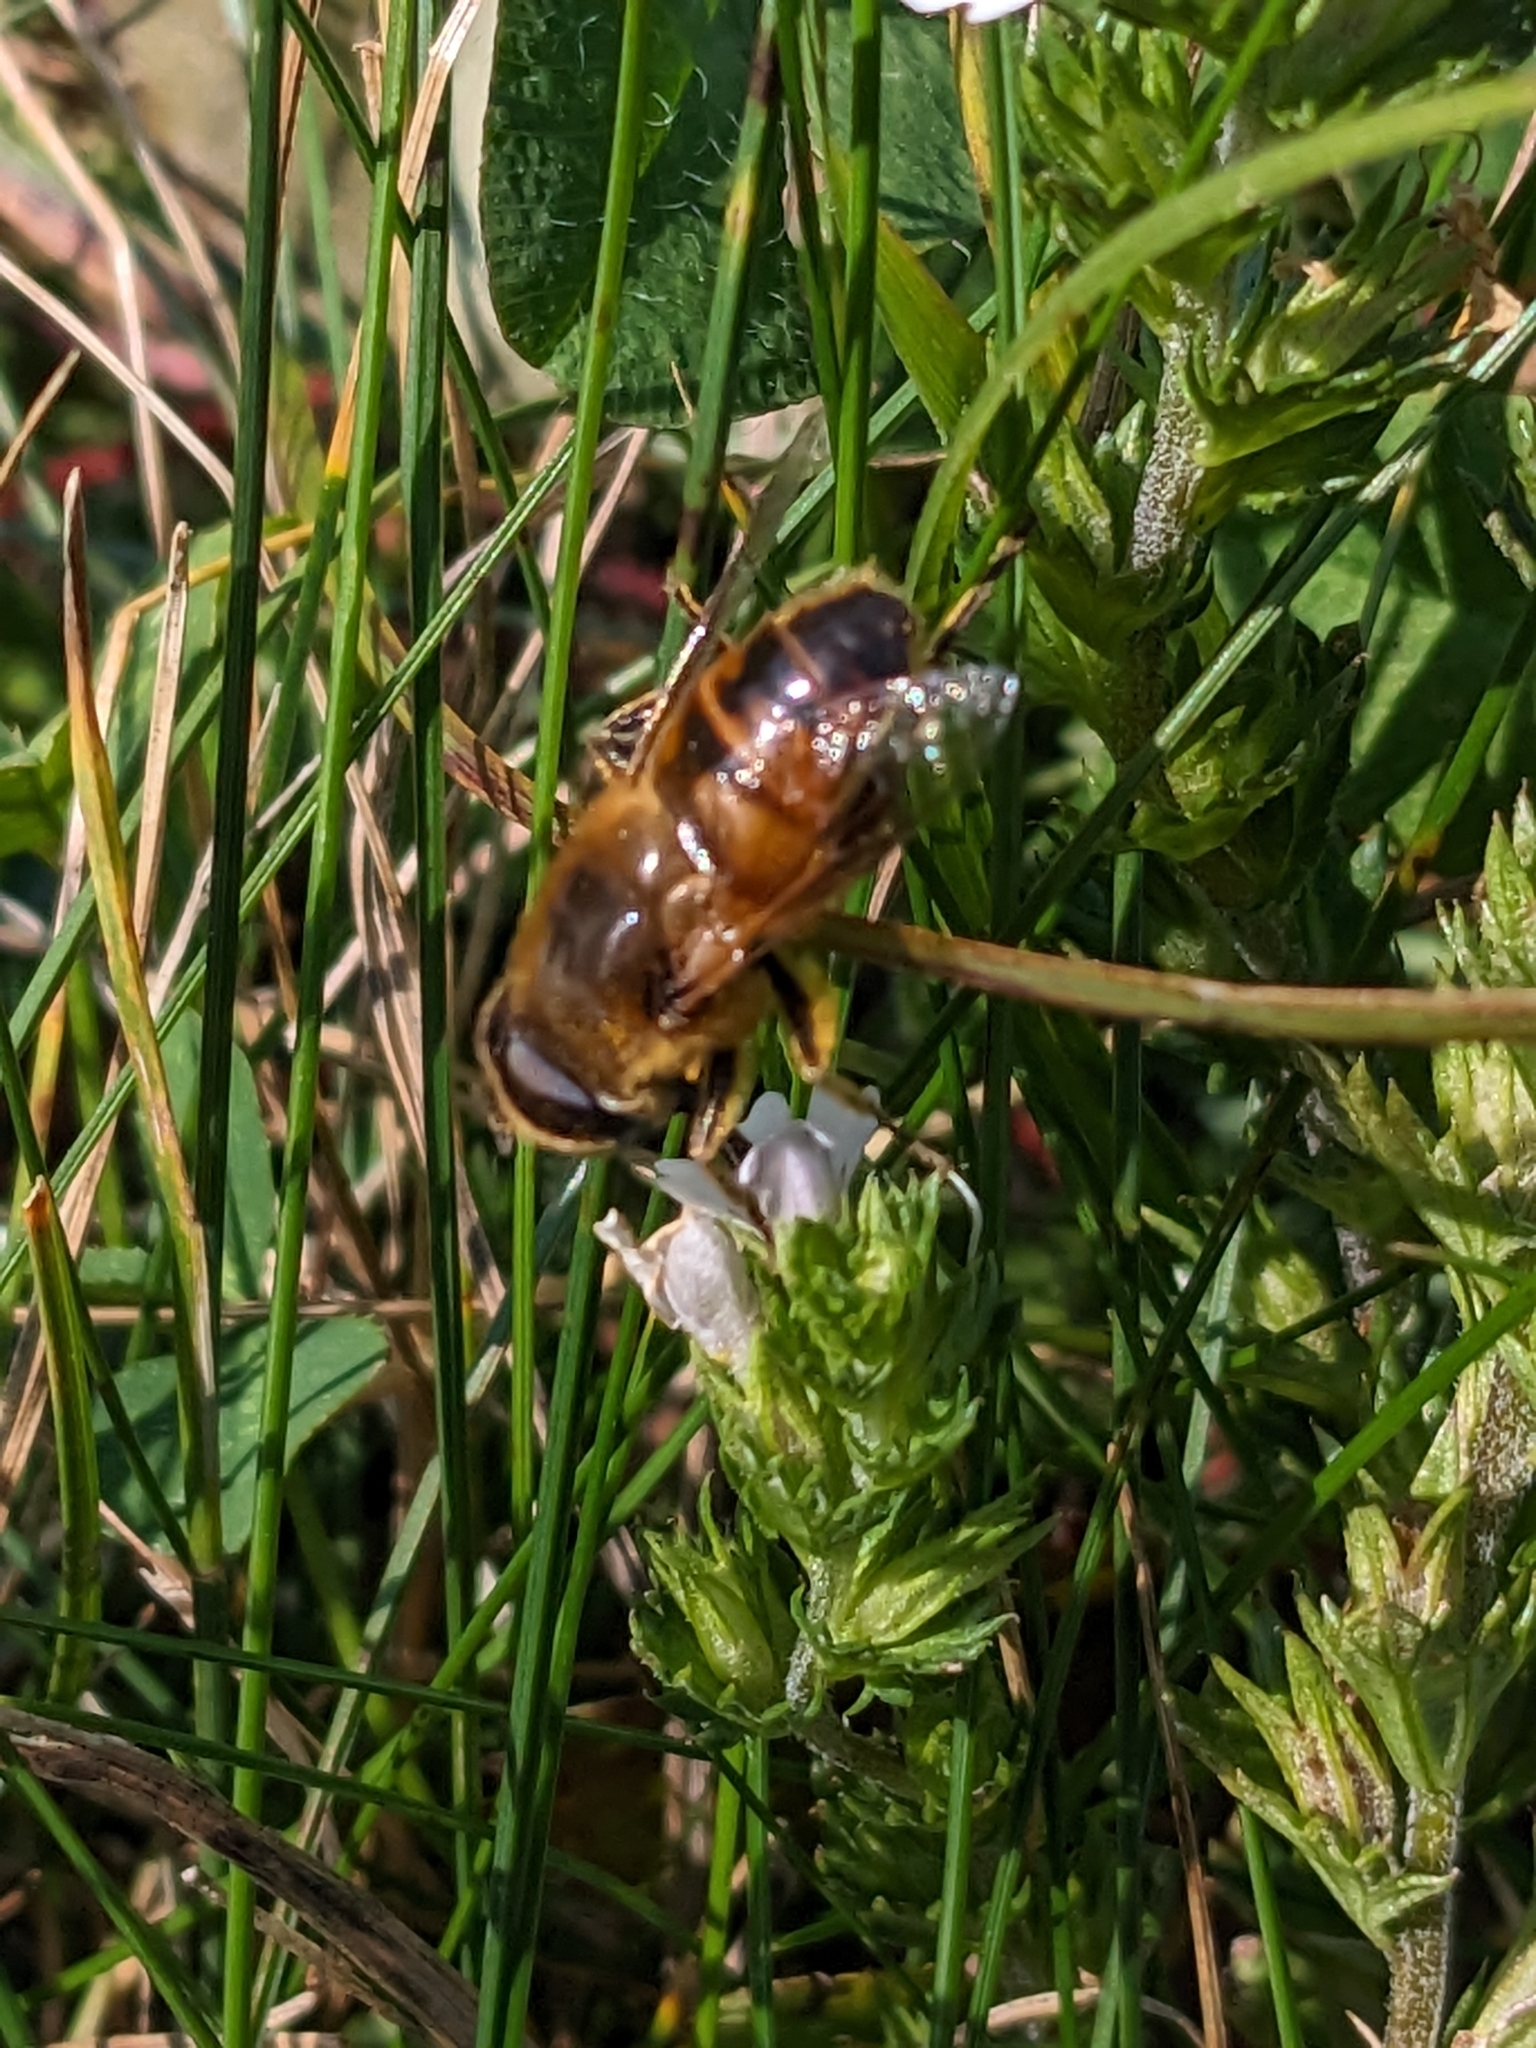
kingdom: Animalia
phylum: Arthropoda
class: Insecta
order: Diptera
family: Syrphidae
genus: Eristalis
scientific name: Eristalis tenax
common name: Drone fly
